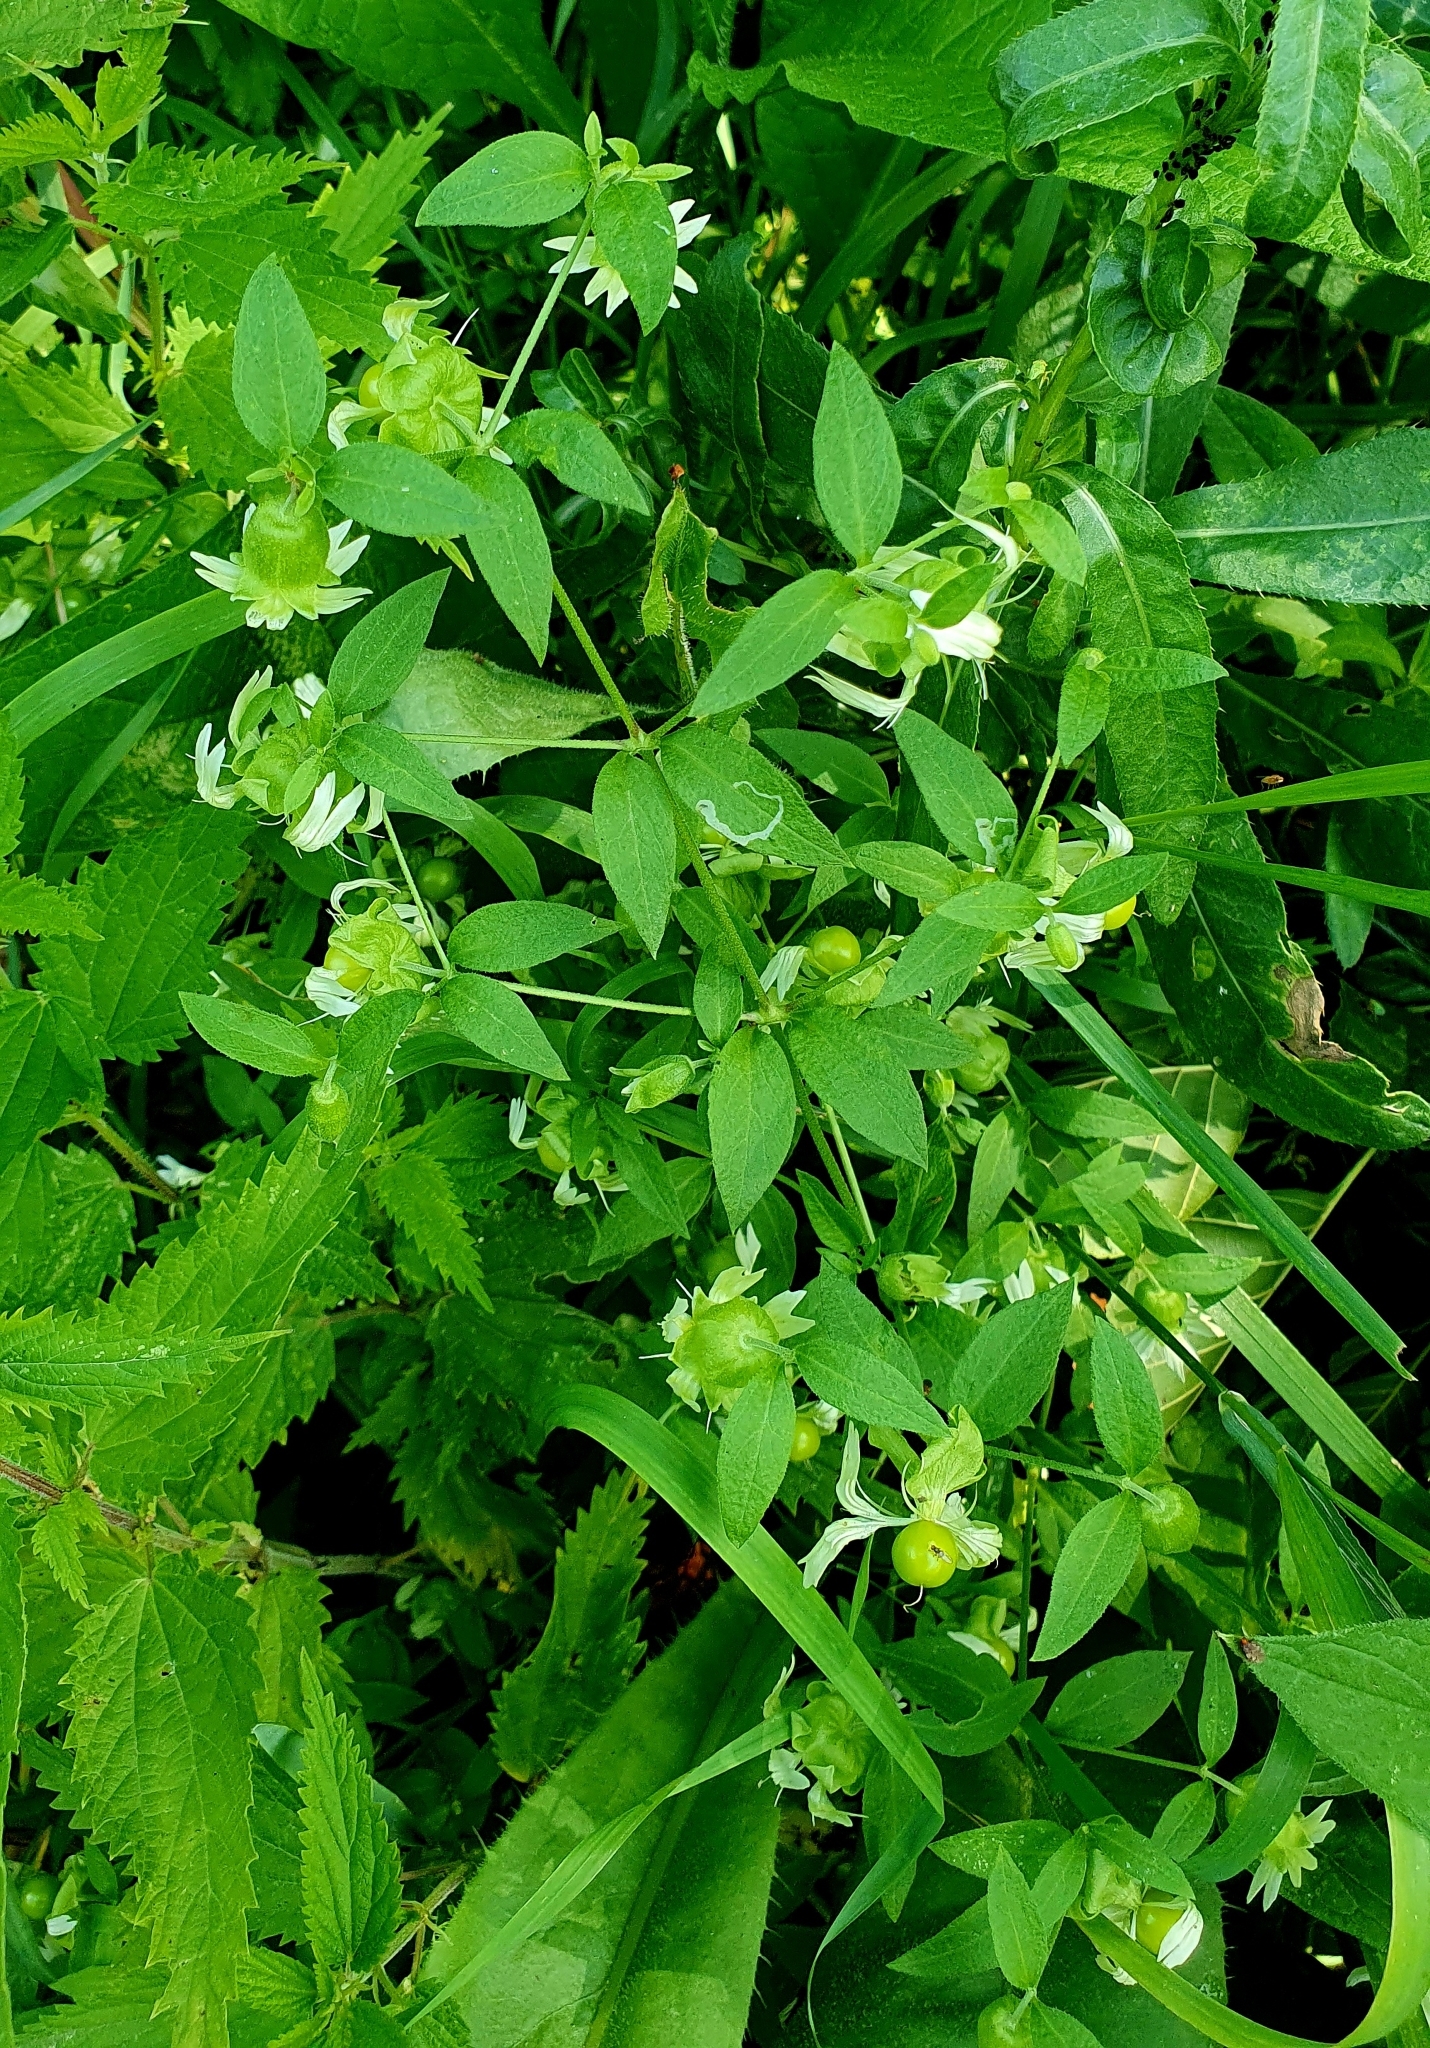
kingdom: Plantae
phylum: Tracheophyta
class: Magnoliopsida
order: Caryophyllales
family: Caryophyllaceae
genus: Silene
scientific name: Silene baccifera
